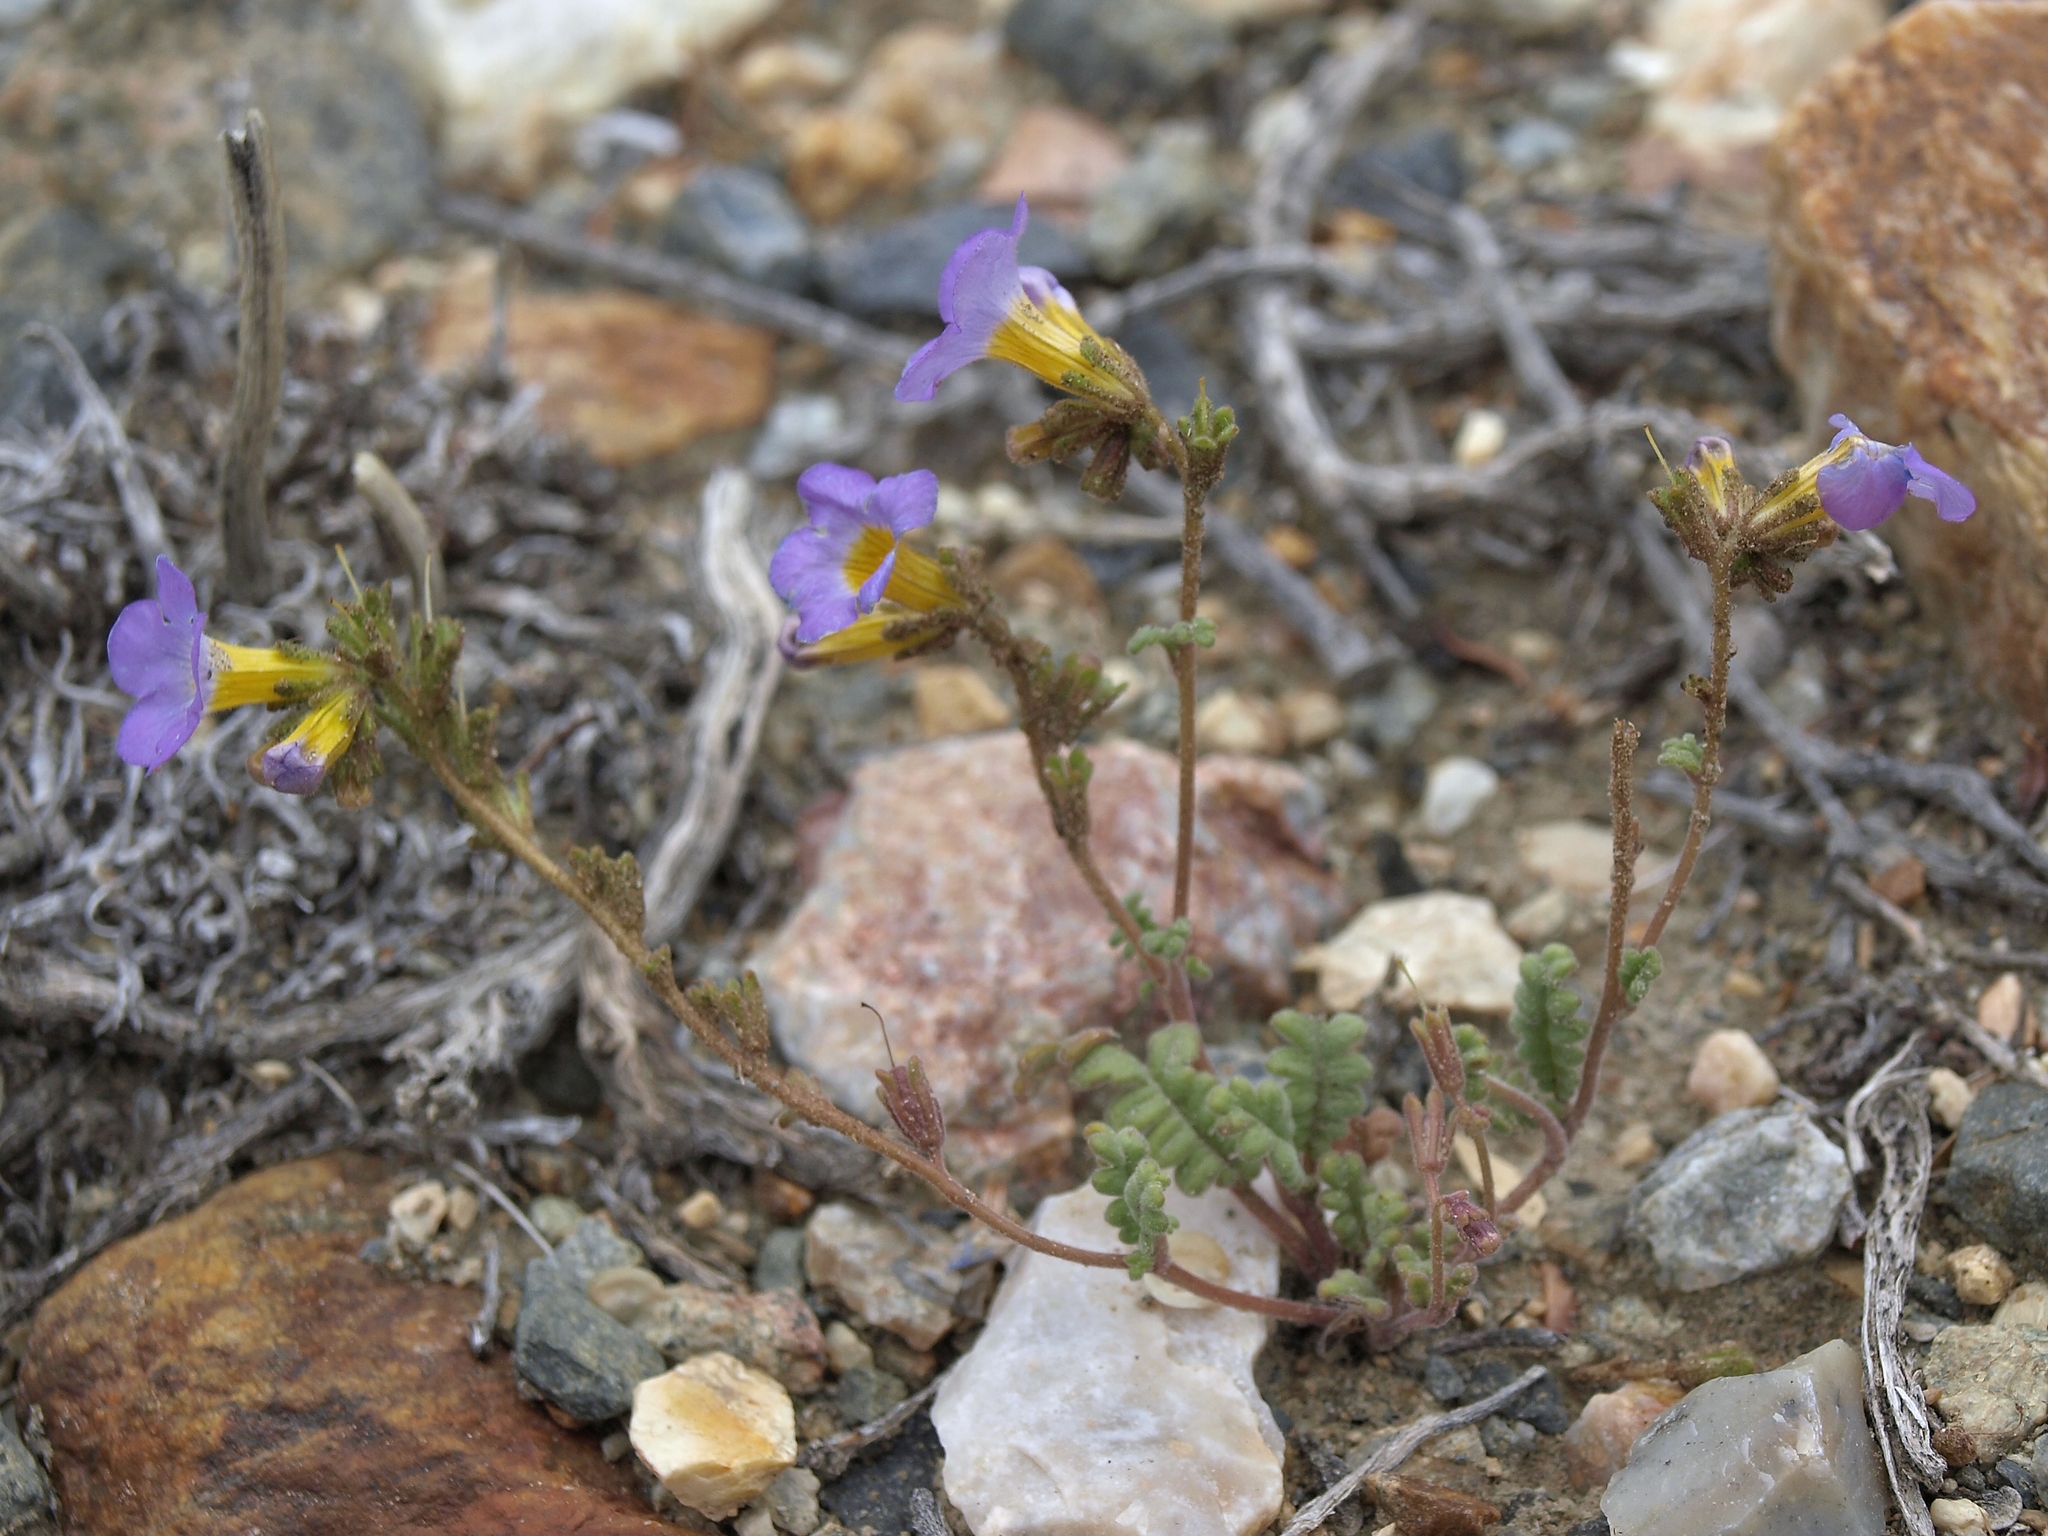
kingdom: Plantae
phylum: Tracheophyta
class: Magnoliopsida
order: Boraginales
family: Hydrophyllaceae
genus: Phacelia
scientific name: Phacelia fremontii
